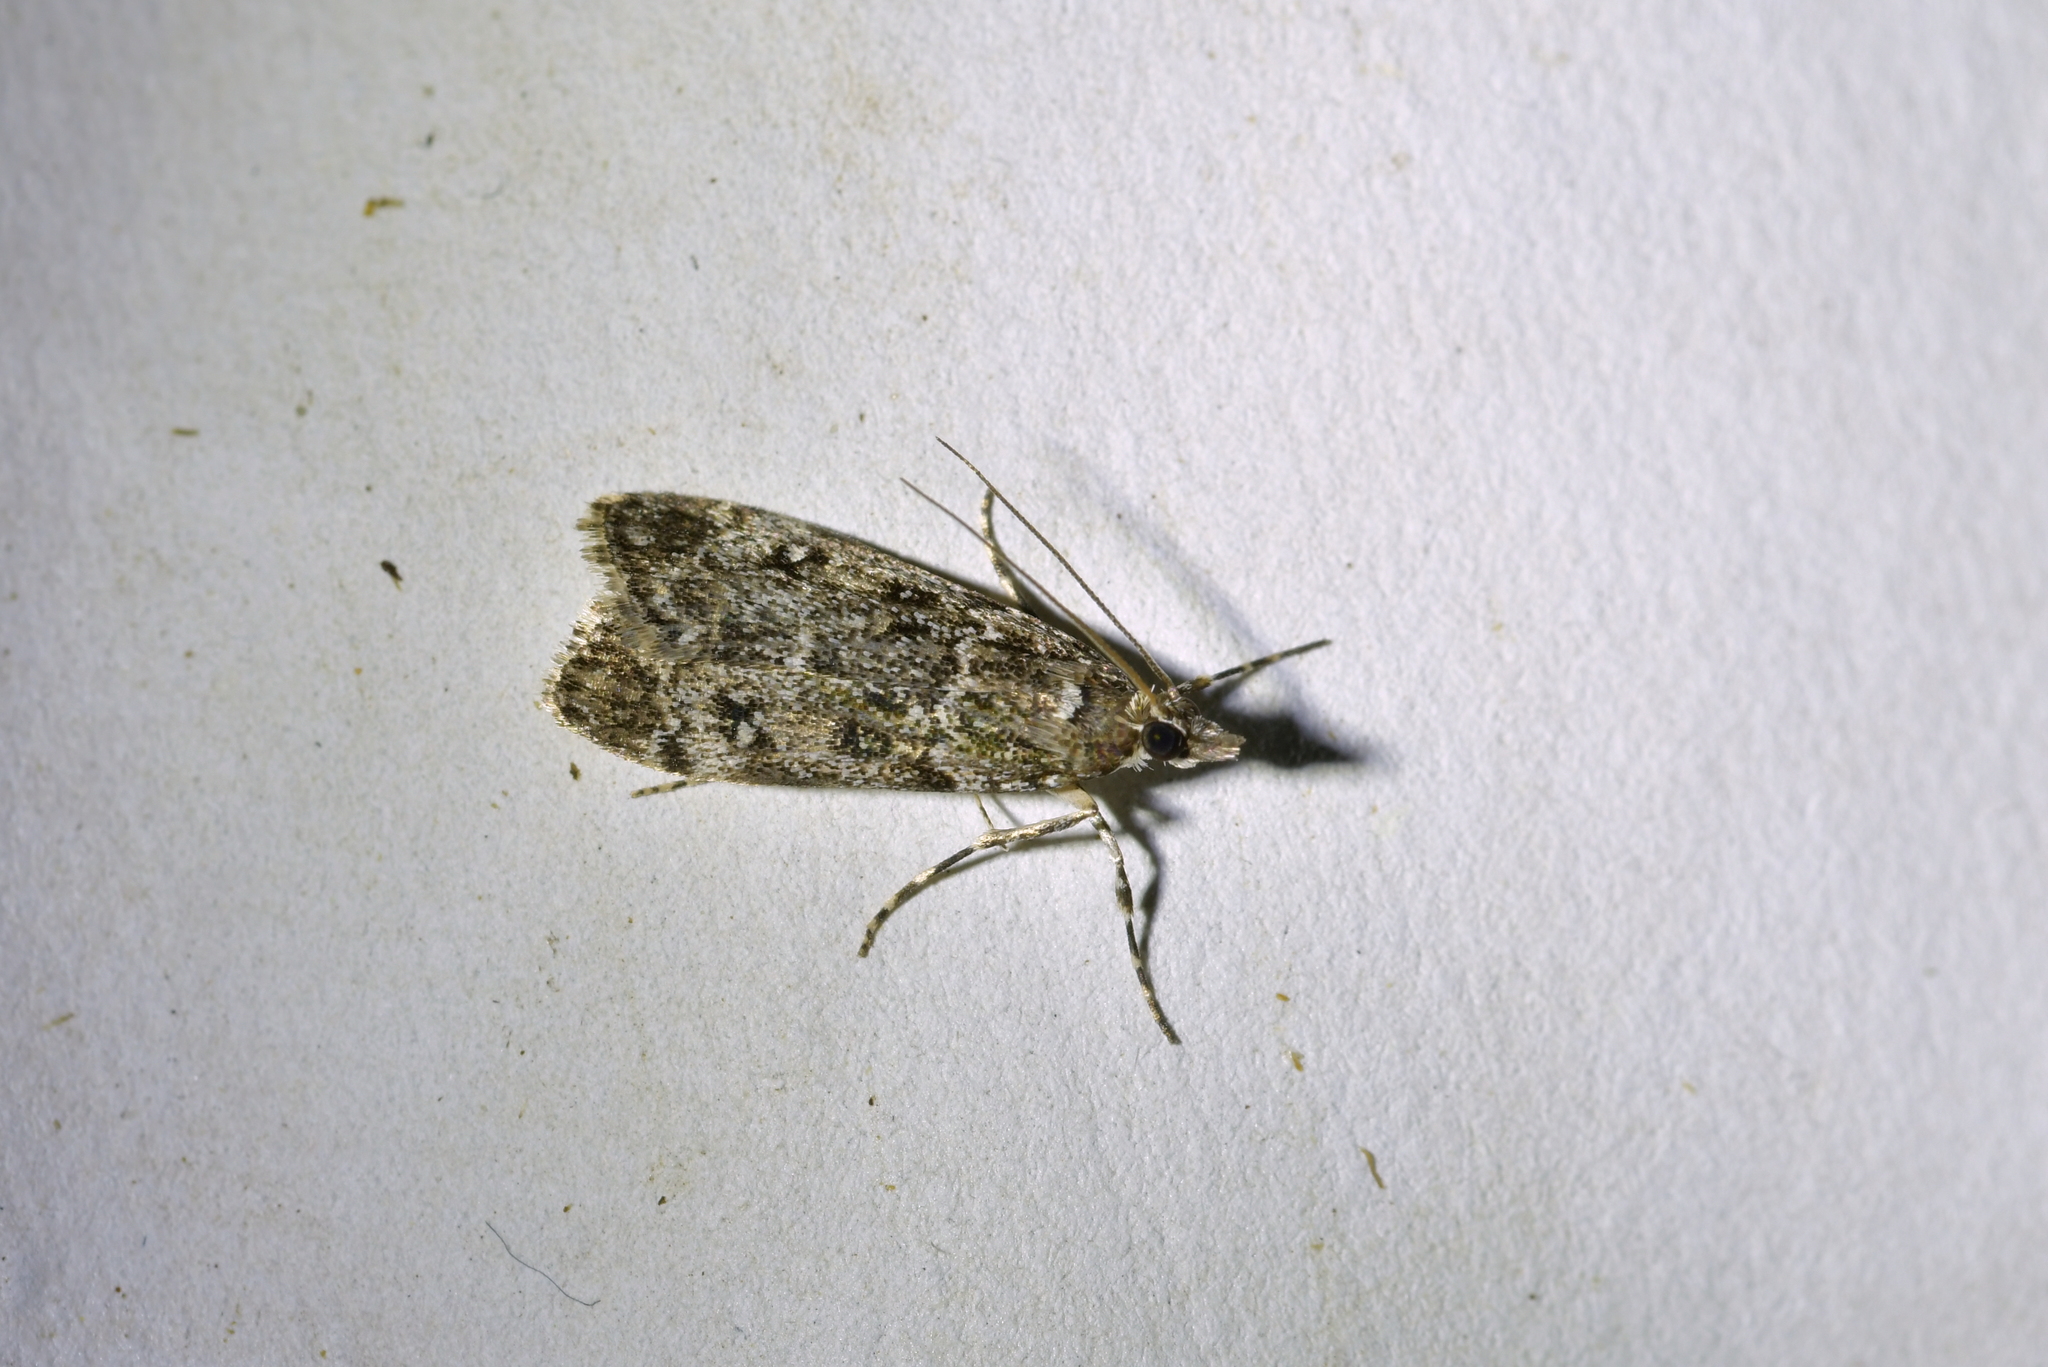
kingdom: Animalia
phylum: Arthropoda
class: Insecta
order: Lepidoptera
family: Crambidae
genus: Eudonia
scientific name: Eudonia philerga
